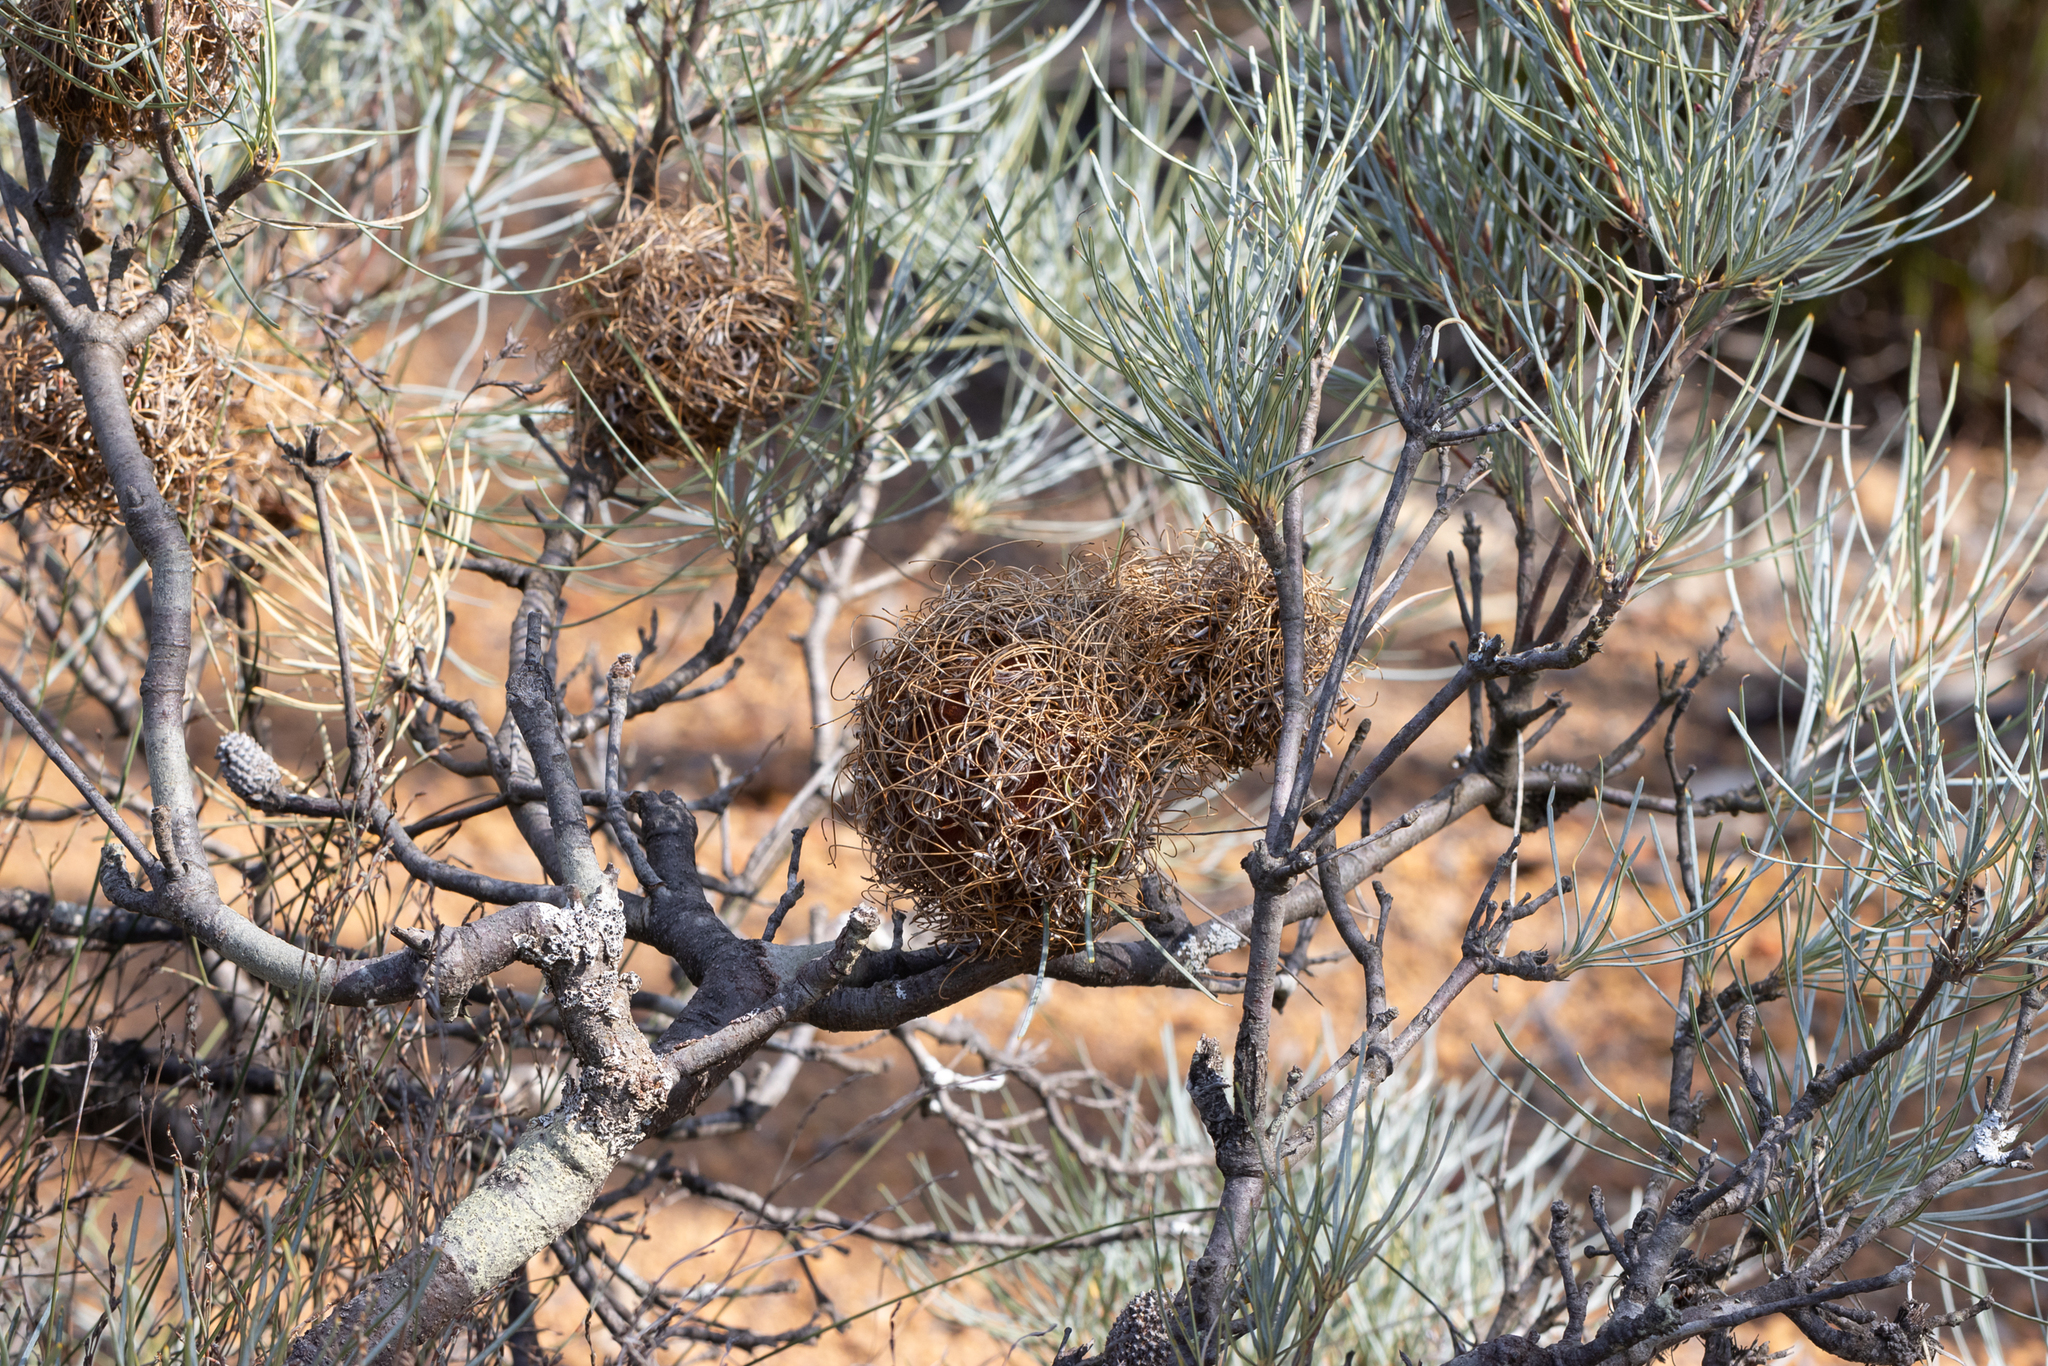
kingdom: Plantae
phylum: Tracheophyta
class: Magnoliopsida
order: Proteales
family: Proteaceae
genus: Banksia
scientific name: Banksia sphaerocarpa
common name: Fox banksia
